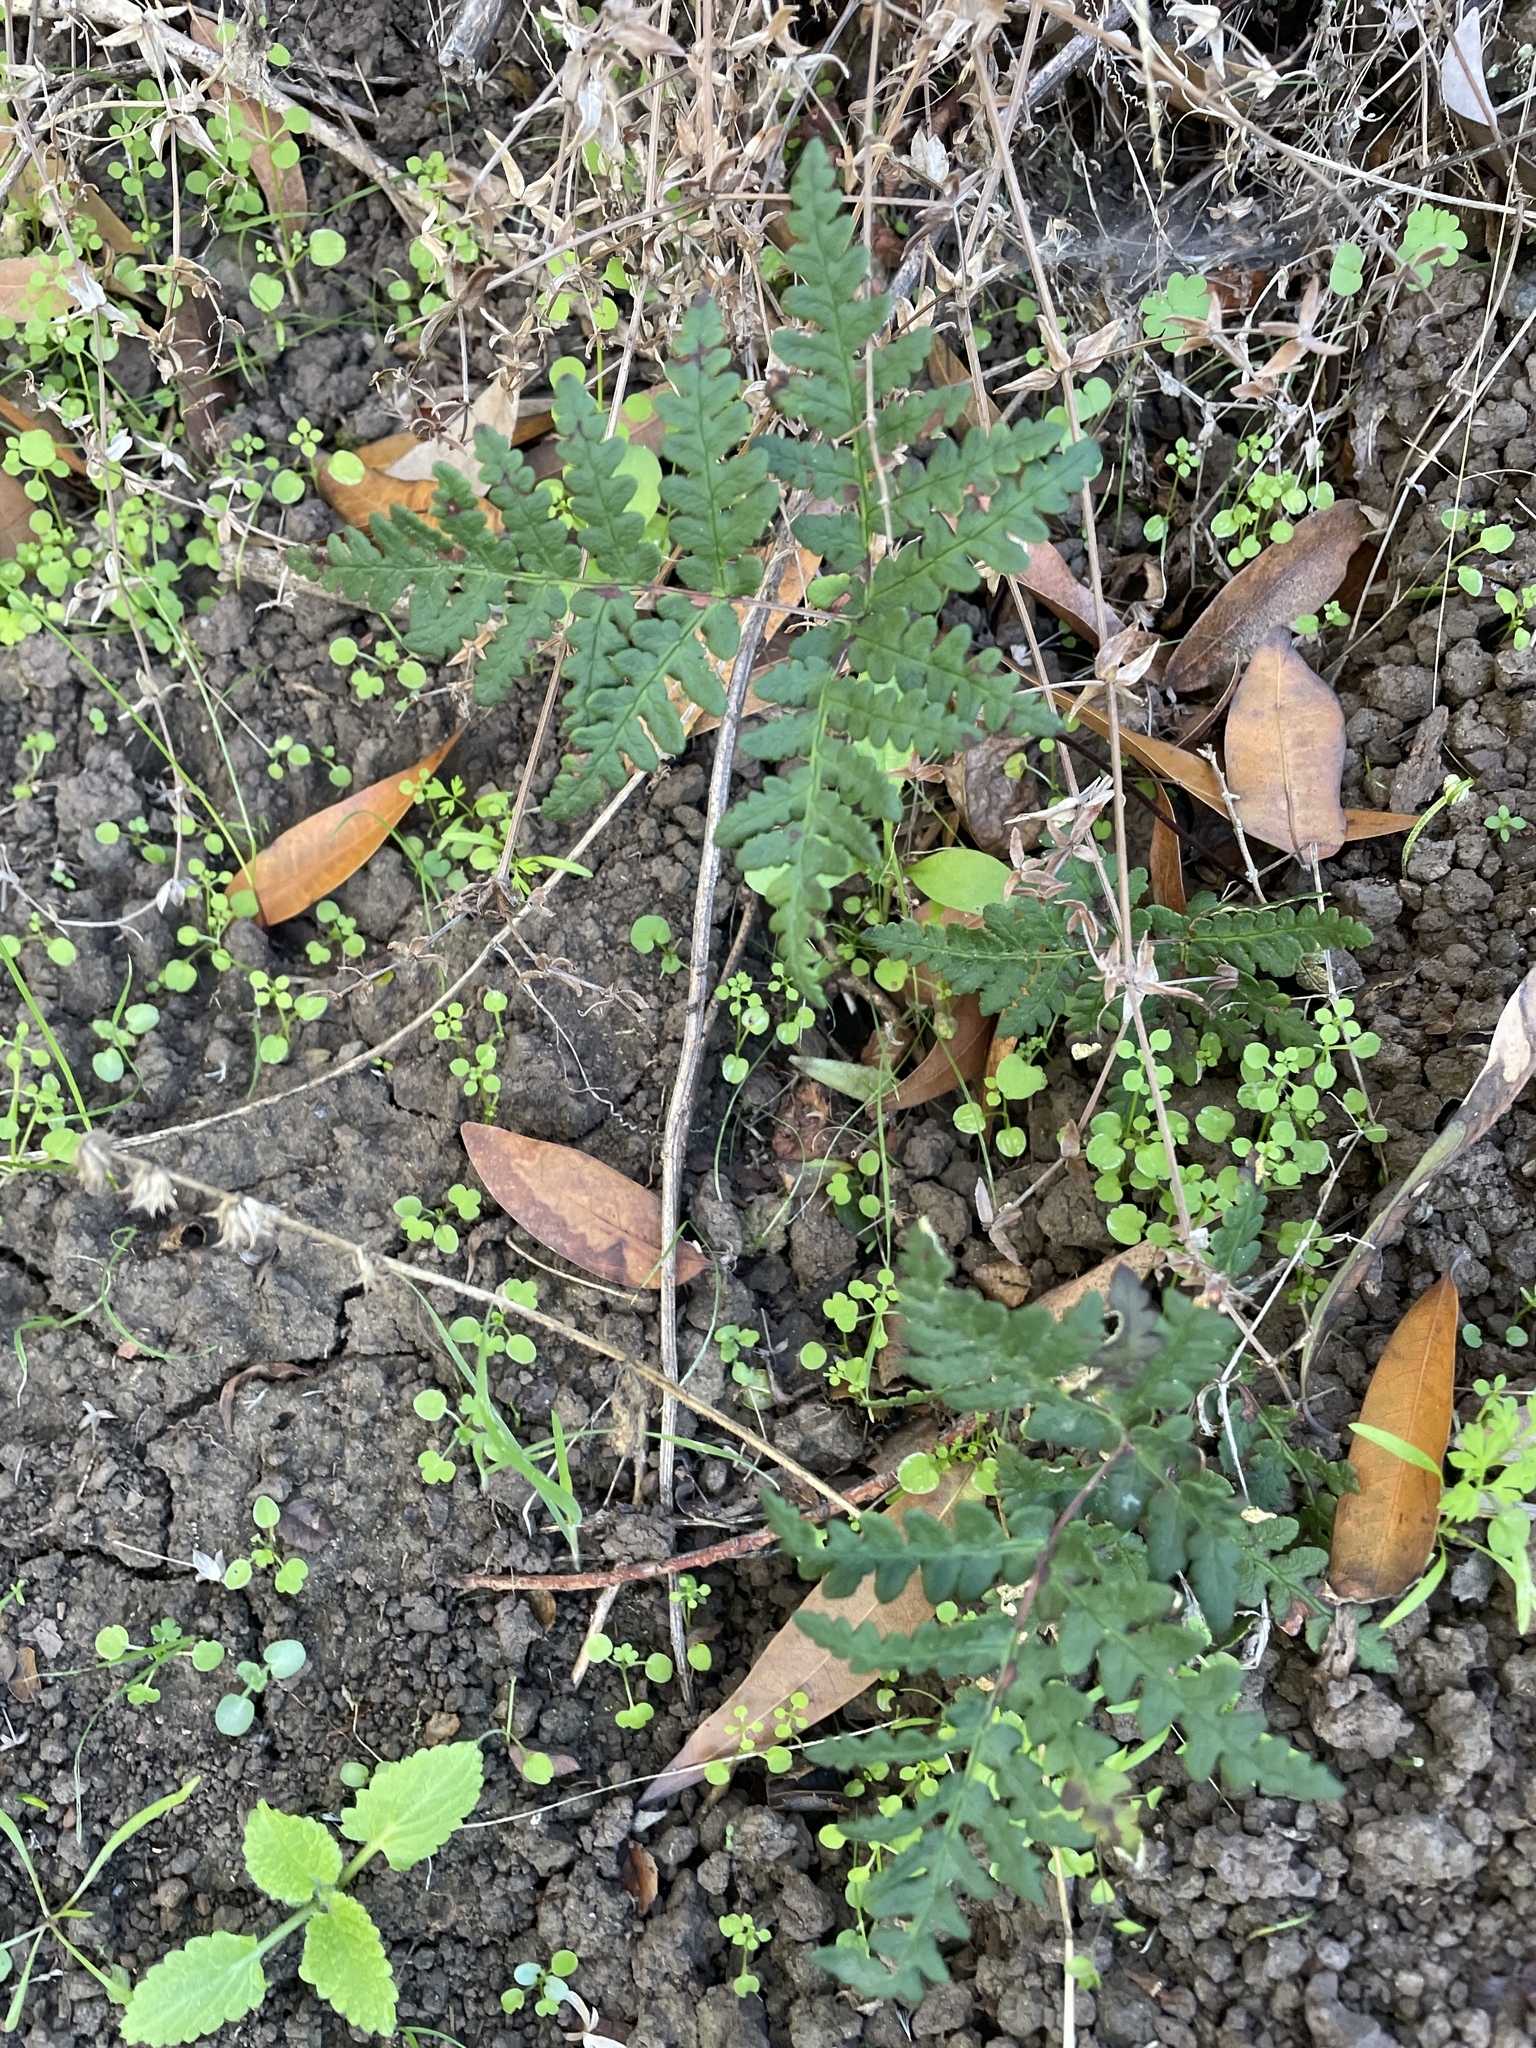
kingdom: Plantae
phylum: Tracheophyta
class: Polypodiopsida
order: Polypodiales
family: Pteridaceae
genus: Pentagramma
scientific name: Pentagramma triangularis
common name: Gold fern
